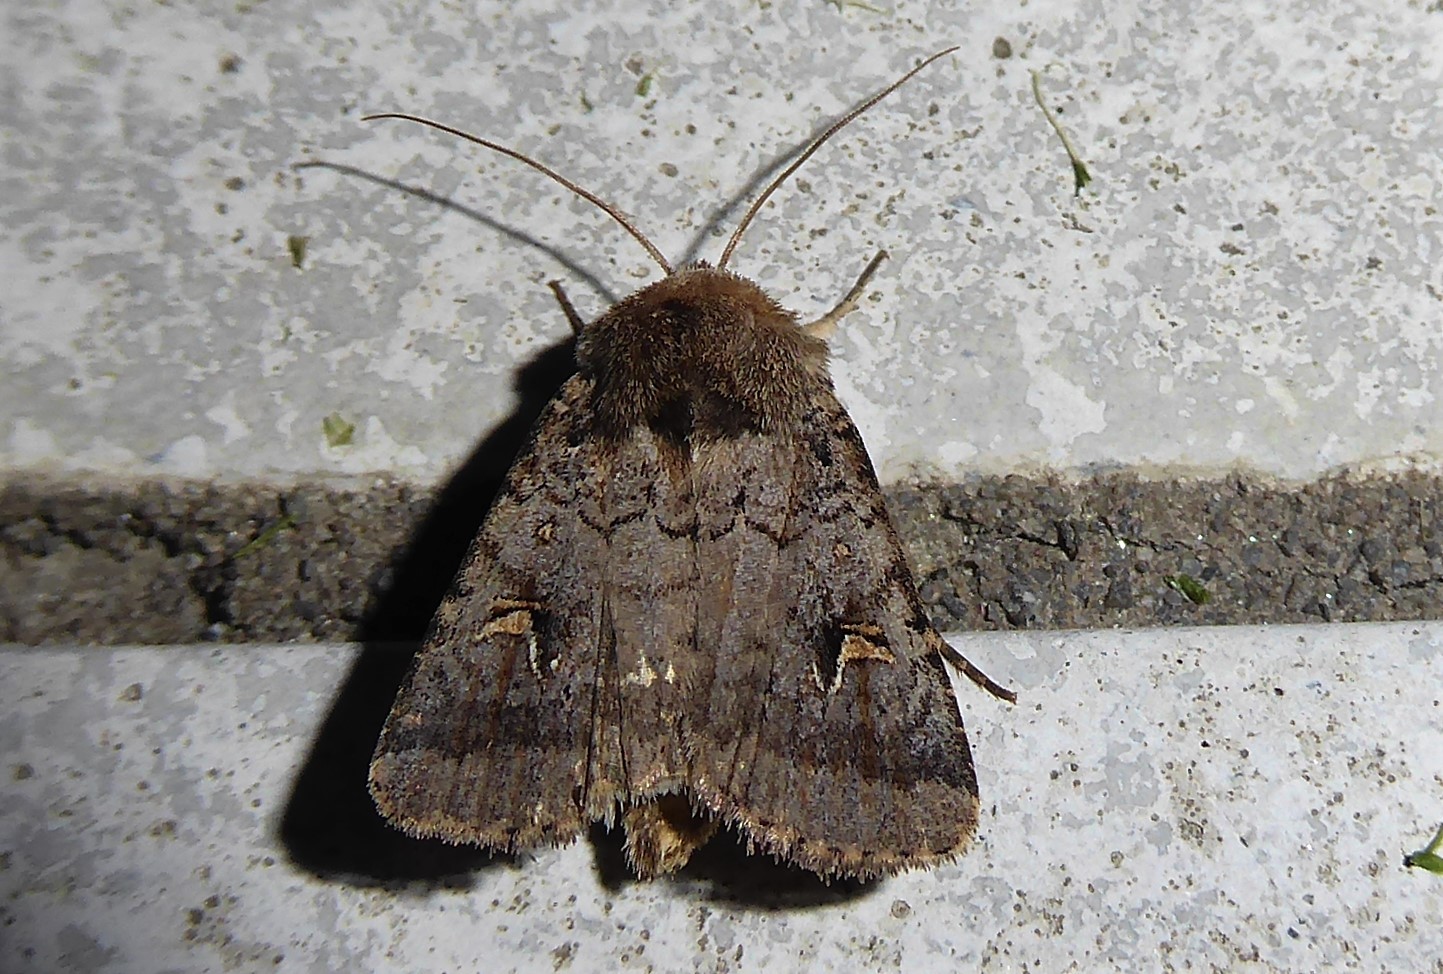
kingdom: Animalia
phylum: Arthropoda
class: Insecta
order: Lepidoptera
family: Noctuidae
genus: Proteuxoa
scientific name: Proteuxoa tetronycha
